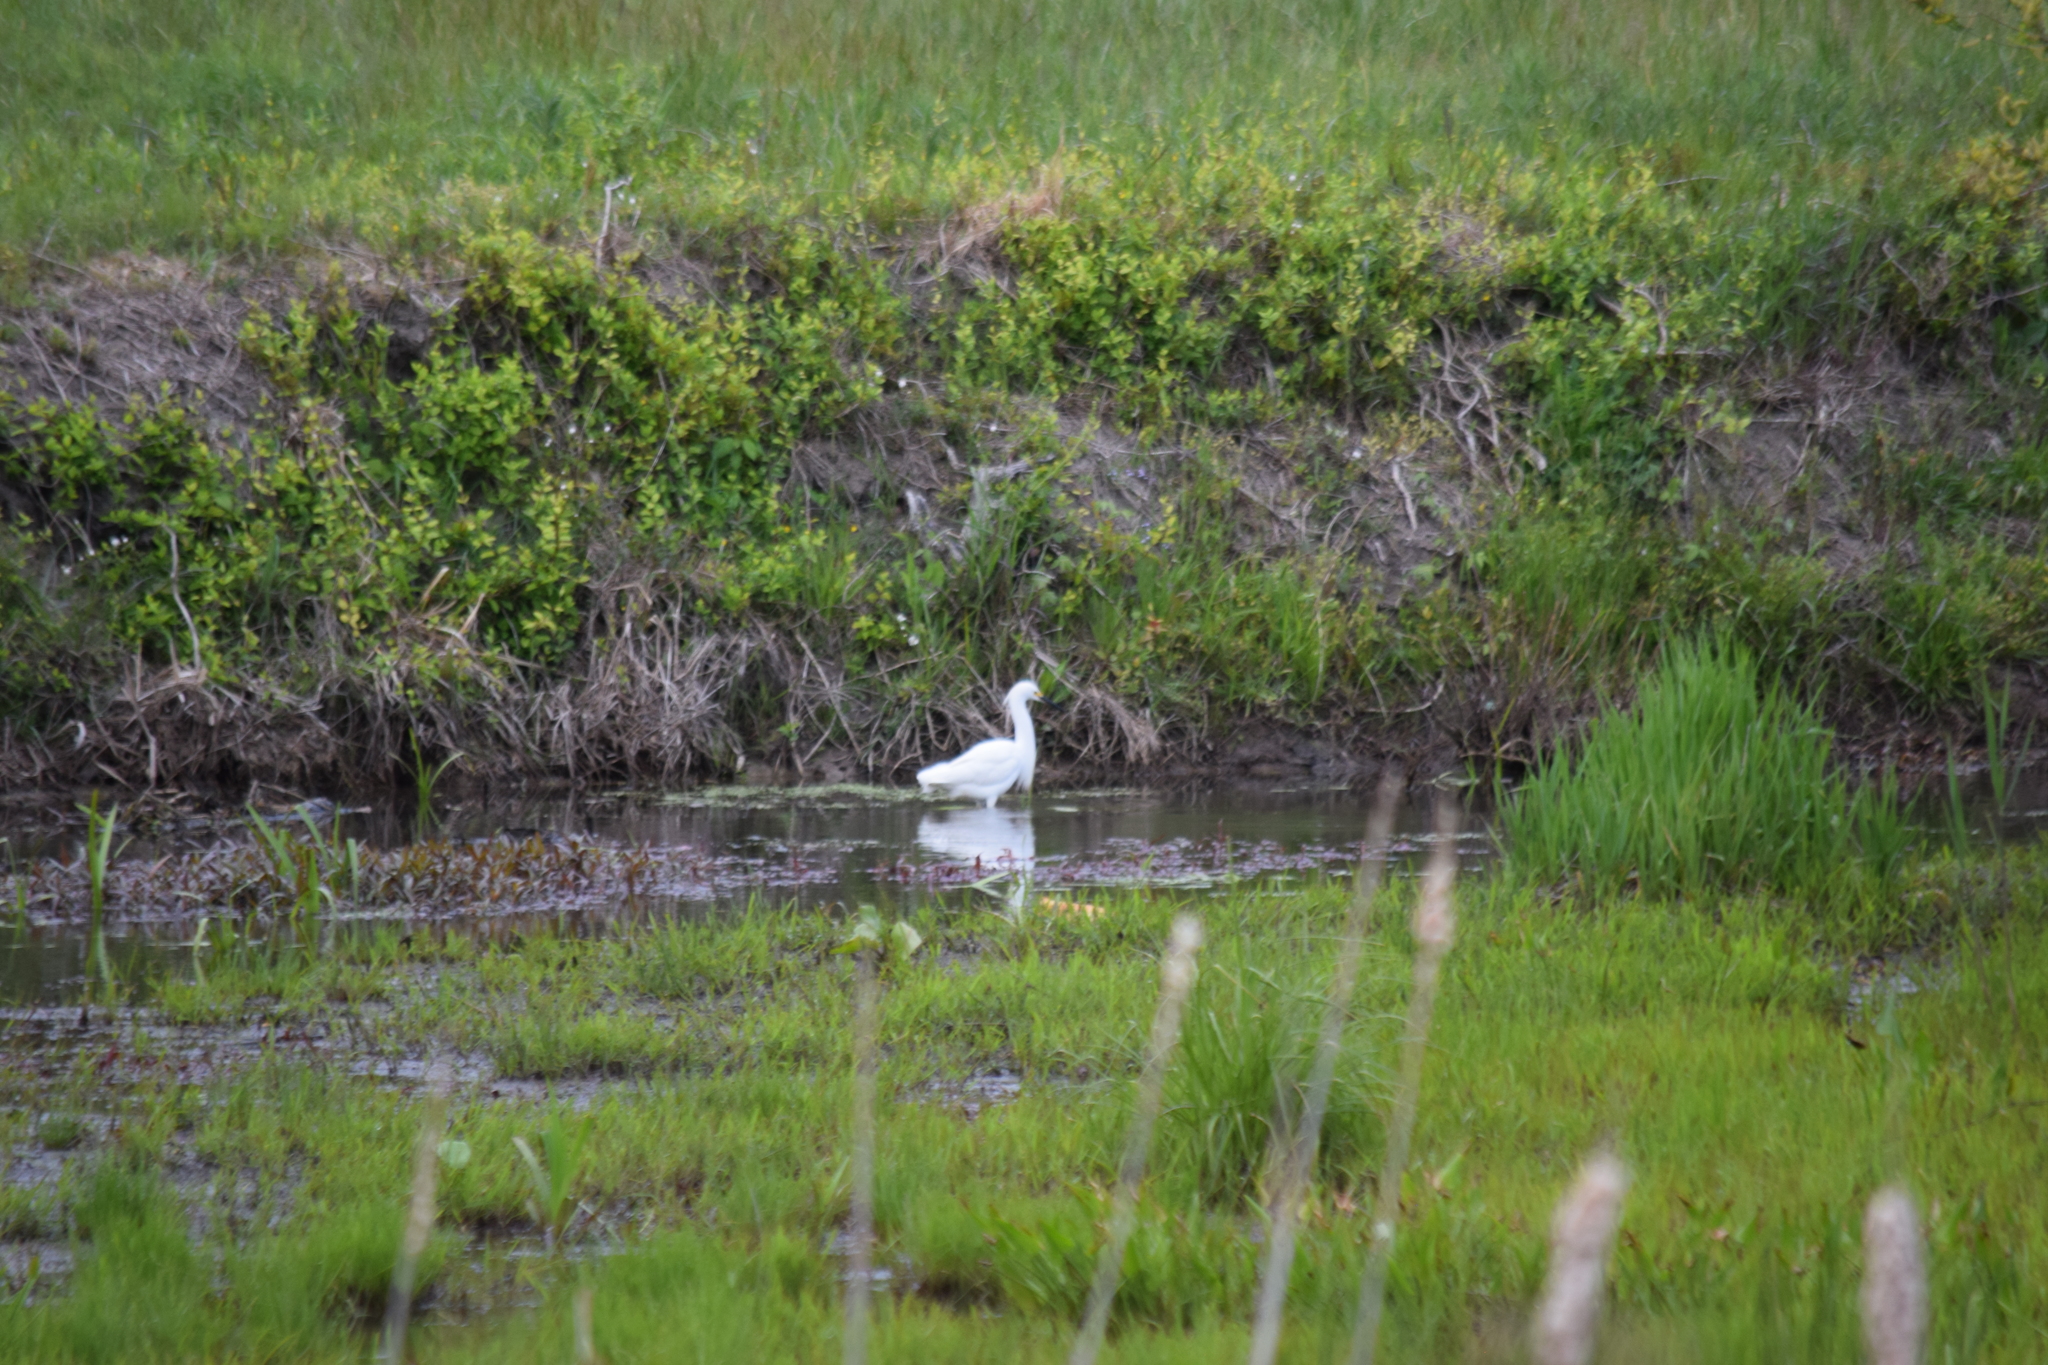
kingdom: Animalia
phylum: Chordata
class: Aves
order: Pelecaniformes
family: Ardeidae
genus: Egretta
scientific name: Egretta thula
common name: Snowy egret
